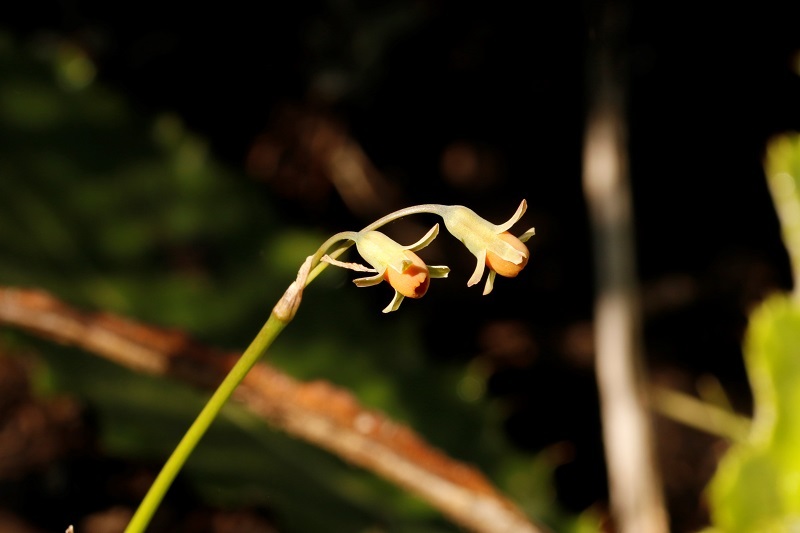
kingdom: Plantae
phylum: Tracheophyta
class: Liliopsida
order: Asparagales
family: Amaryllidaceae
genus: Tulbaghia
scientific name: Tulbaghia acutiloba
